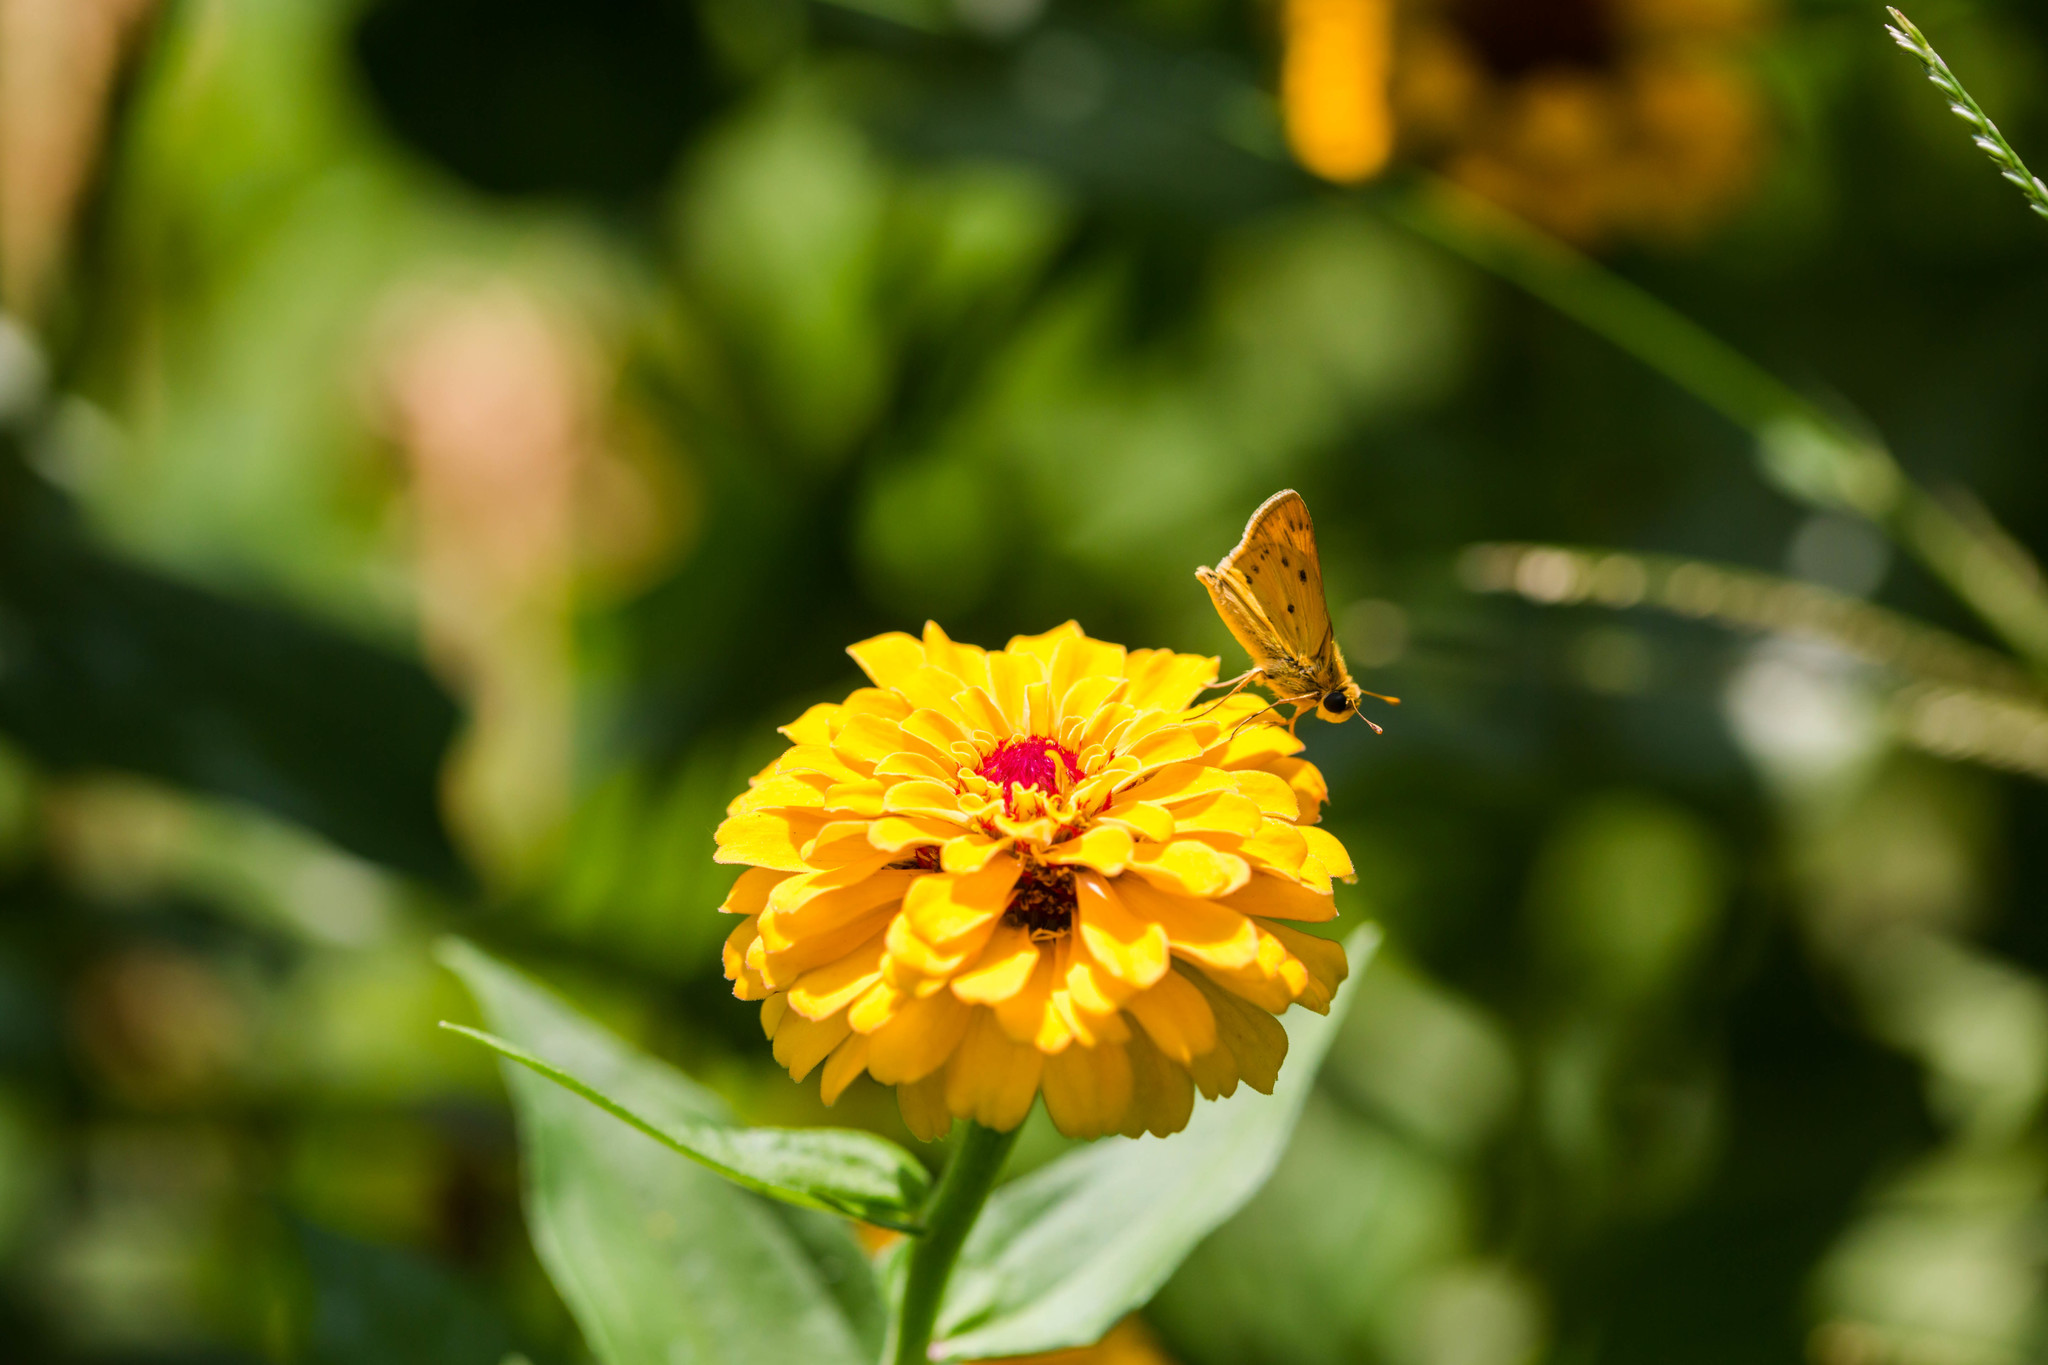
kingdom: Animalia
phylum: Arthropoda
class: Insecta
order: Lepidoptera
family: Hesperiidae
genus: Hylephila
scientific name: Hylephila phyleus
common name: Fiery skipper
